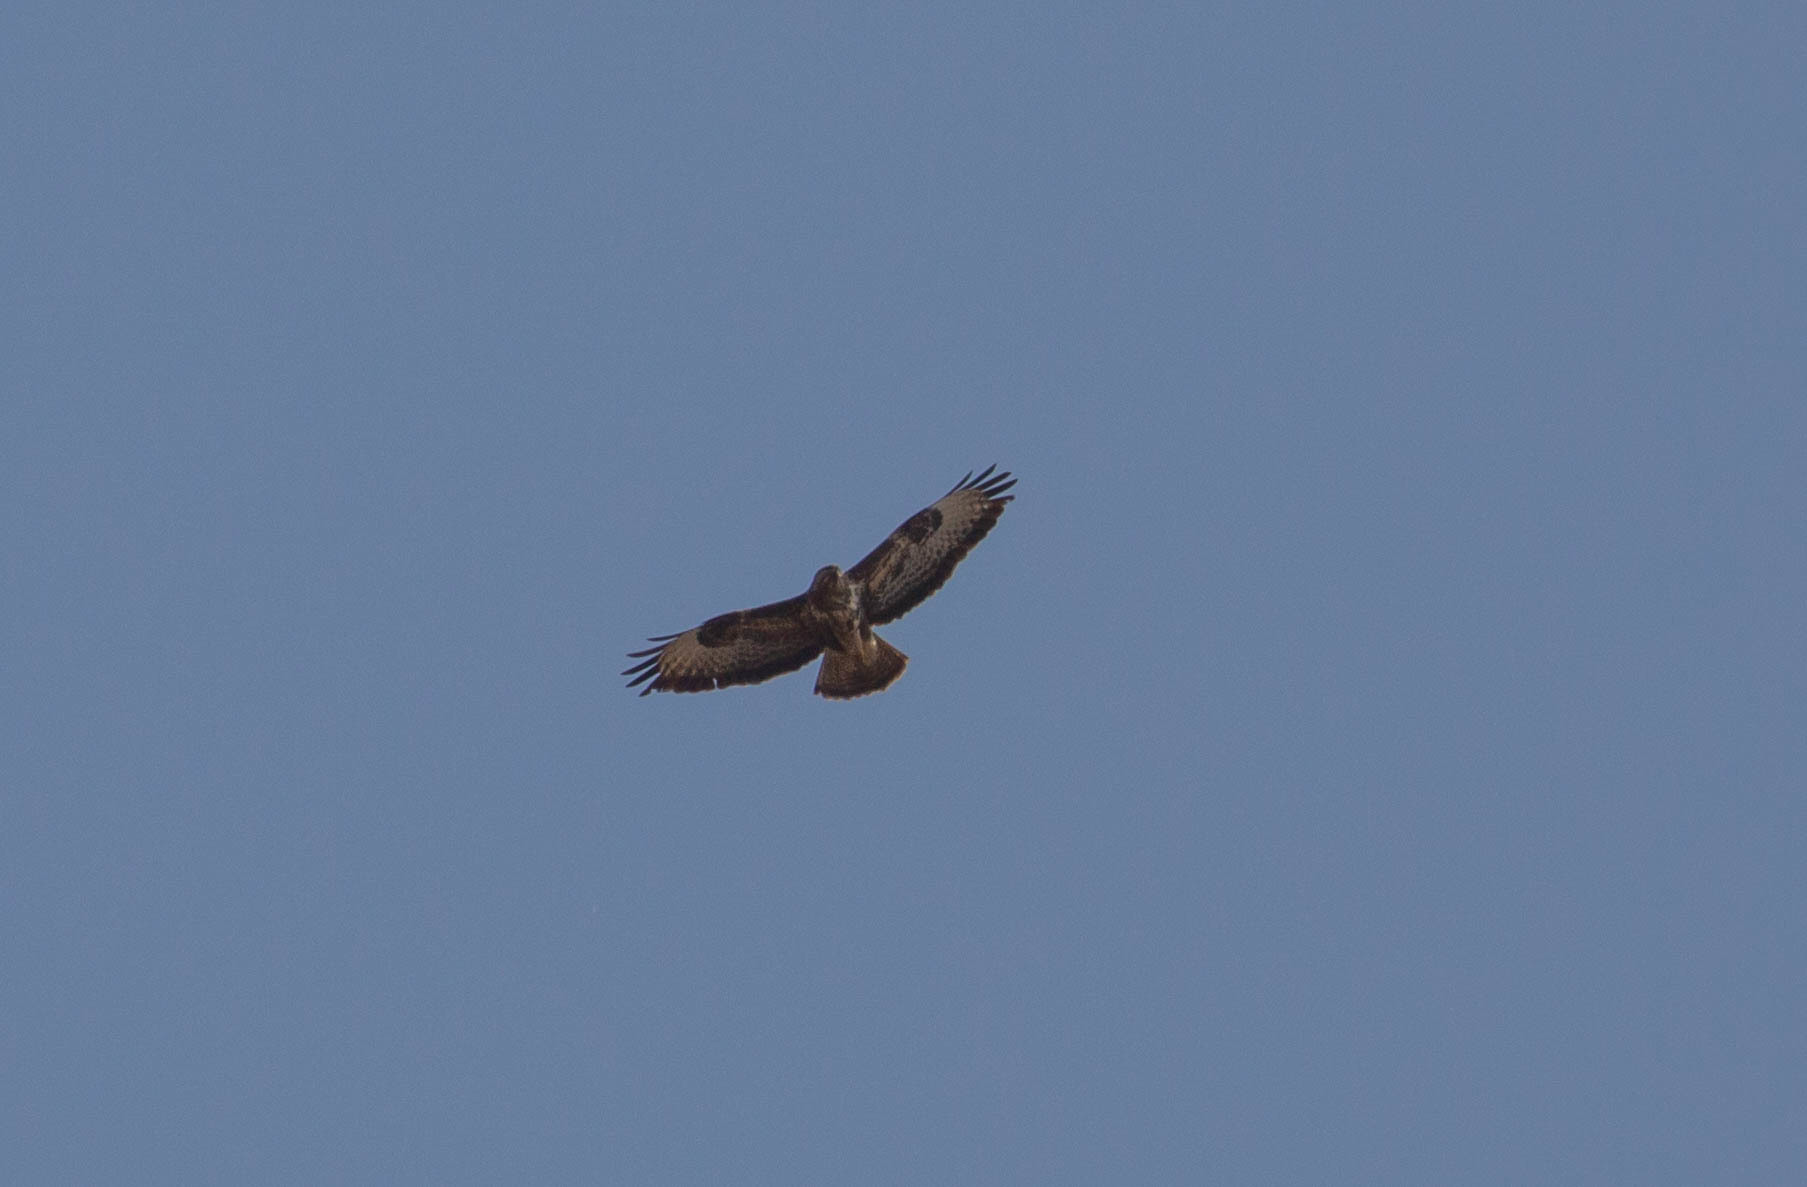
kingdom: Animalia
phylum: Chordata
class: Aves
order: Accipitriformes
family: Accipitridae
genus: Buteo
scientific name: Buteo buteo
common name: Common buzzard
